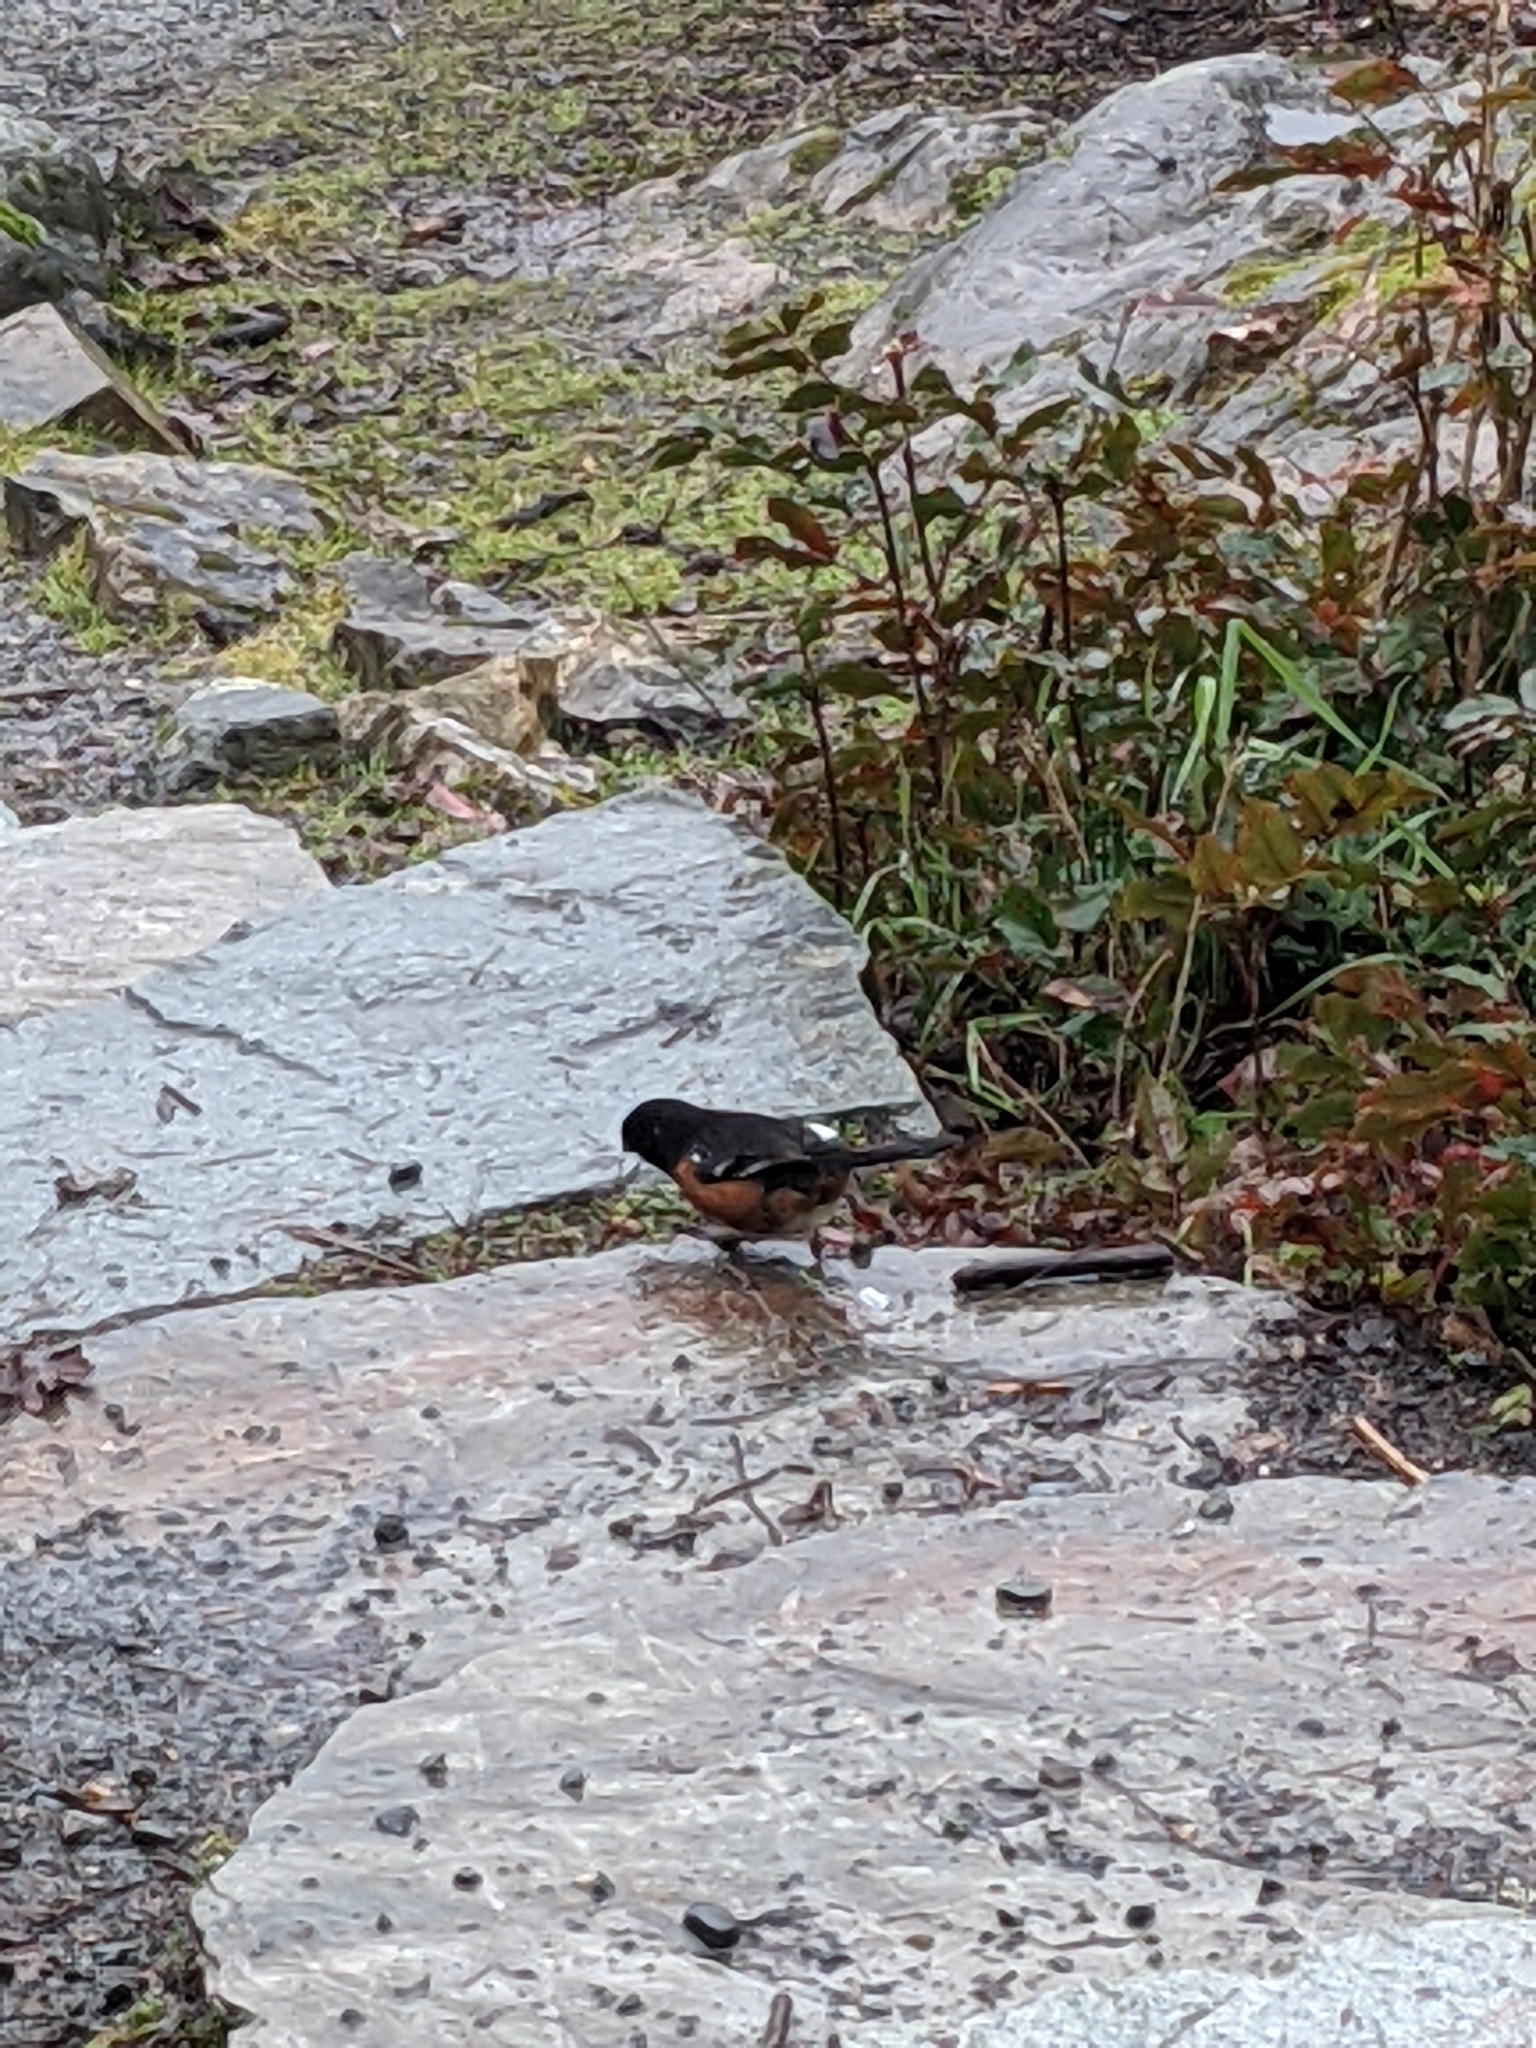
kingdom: Animalia
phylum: Chordata
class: Aves
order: Passeriformes
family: Passerellidae
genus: Pipilo
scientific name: Pipilo maculatus
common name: Spotted towhee
